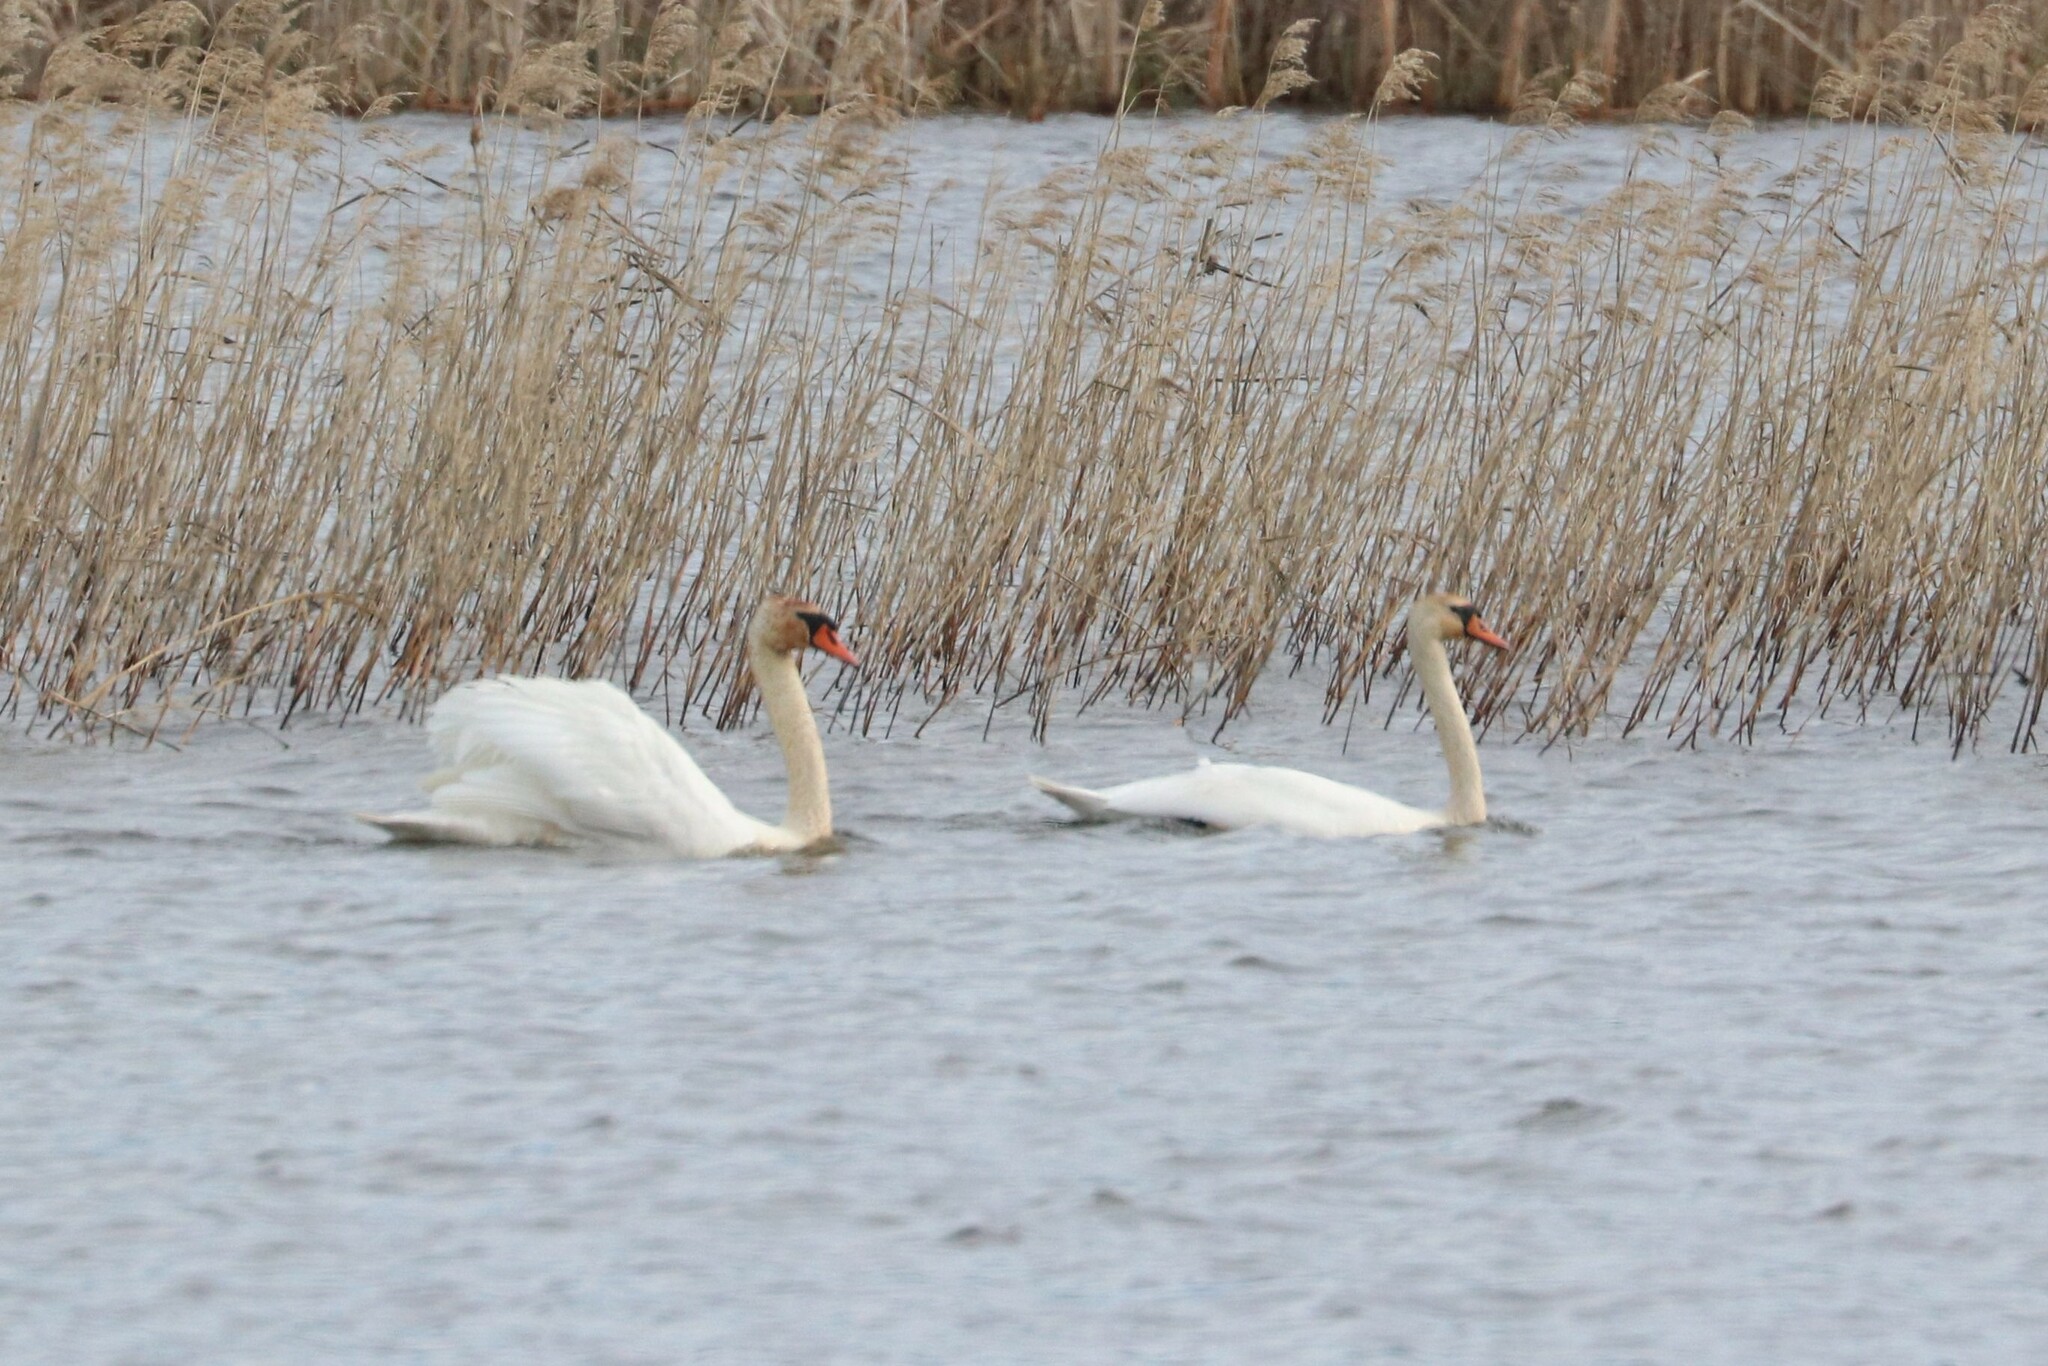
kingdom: Animalia
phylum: Chordata
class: Aves
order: Anseriformes
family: Anatidae
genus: Cygnus
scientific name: Cygnus olor
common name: Mute swan
